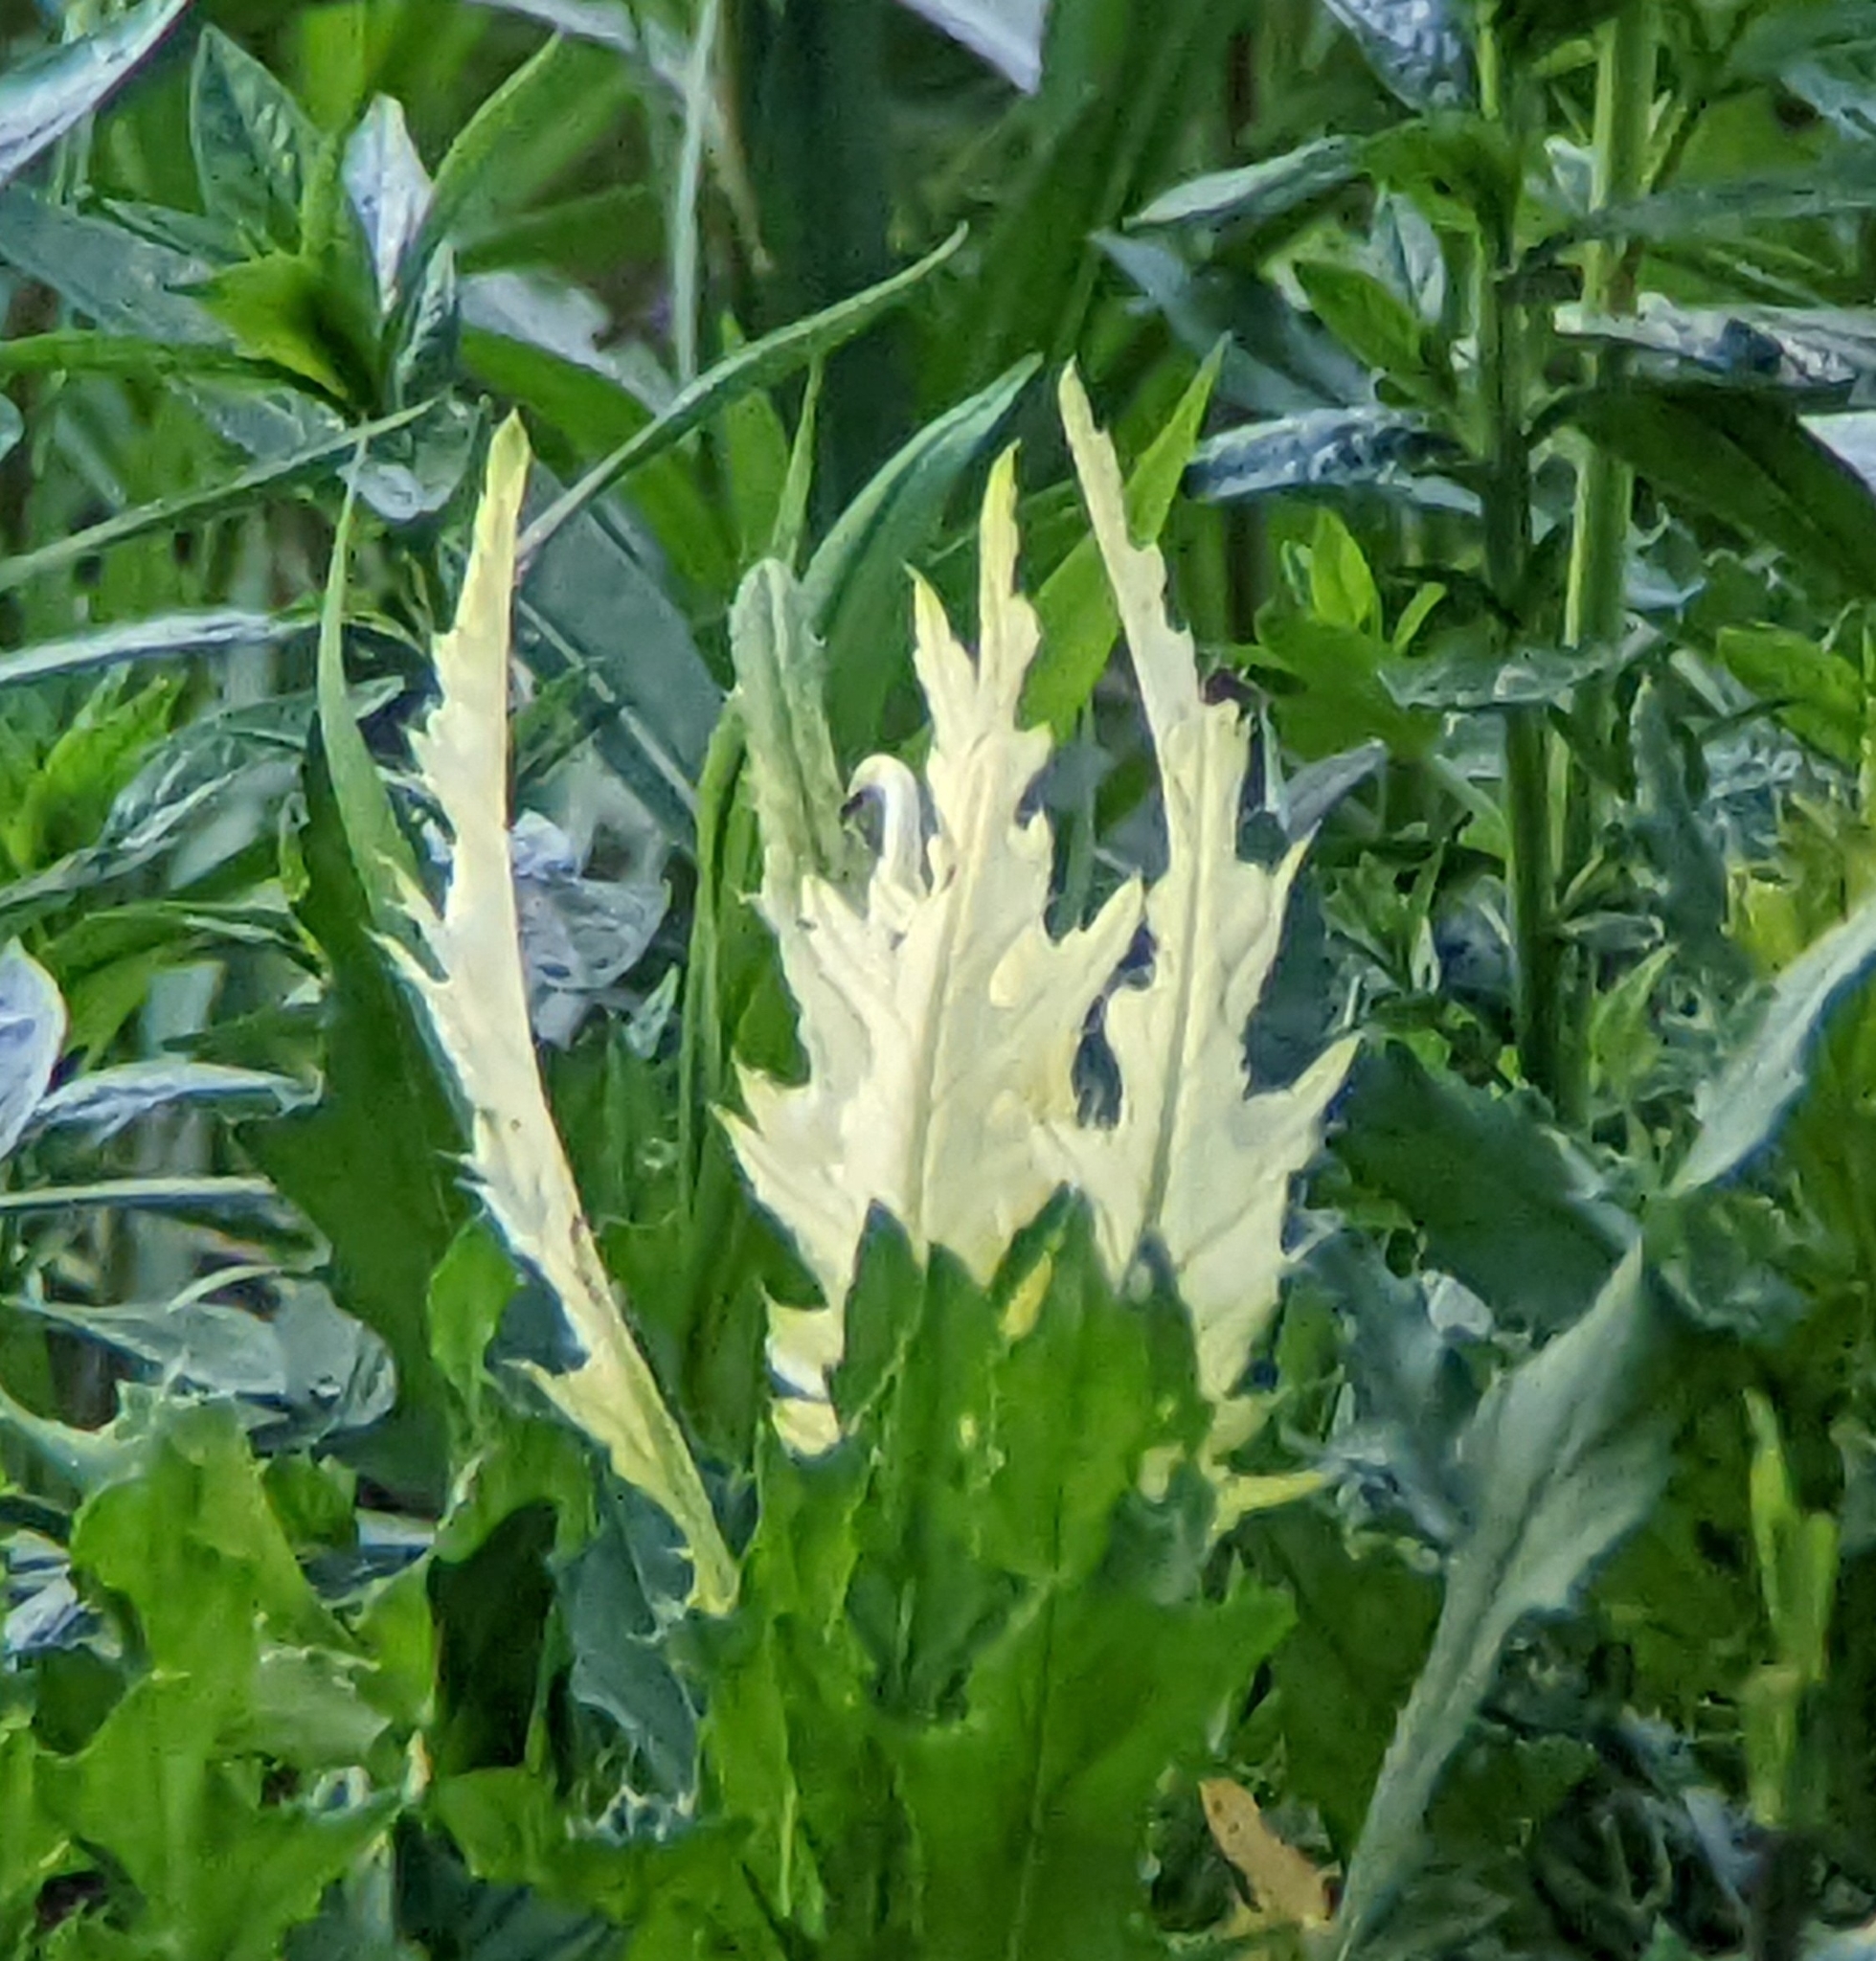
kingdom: Bacteria
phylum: Proteobacteria
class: Gammaproteobacteria
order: Pseudomonadales
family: Pseudomonadaceae
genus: Pseudomonas
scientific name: Pseudomonas syringae
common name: Bacterial speck
